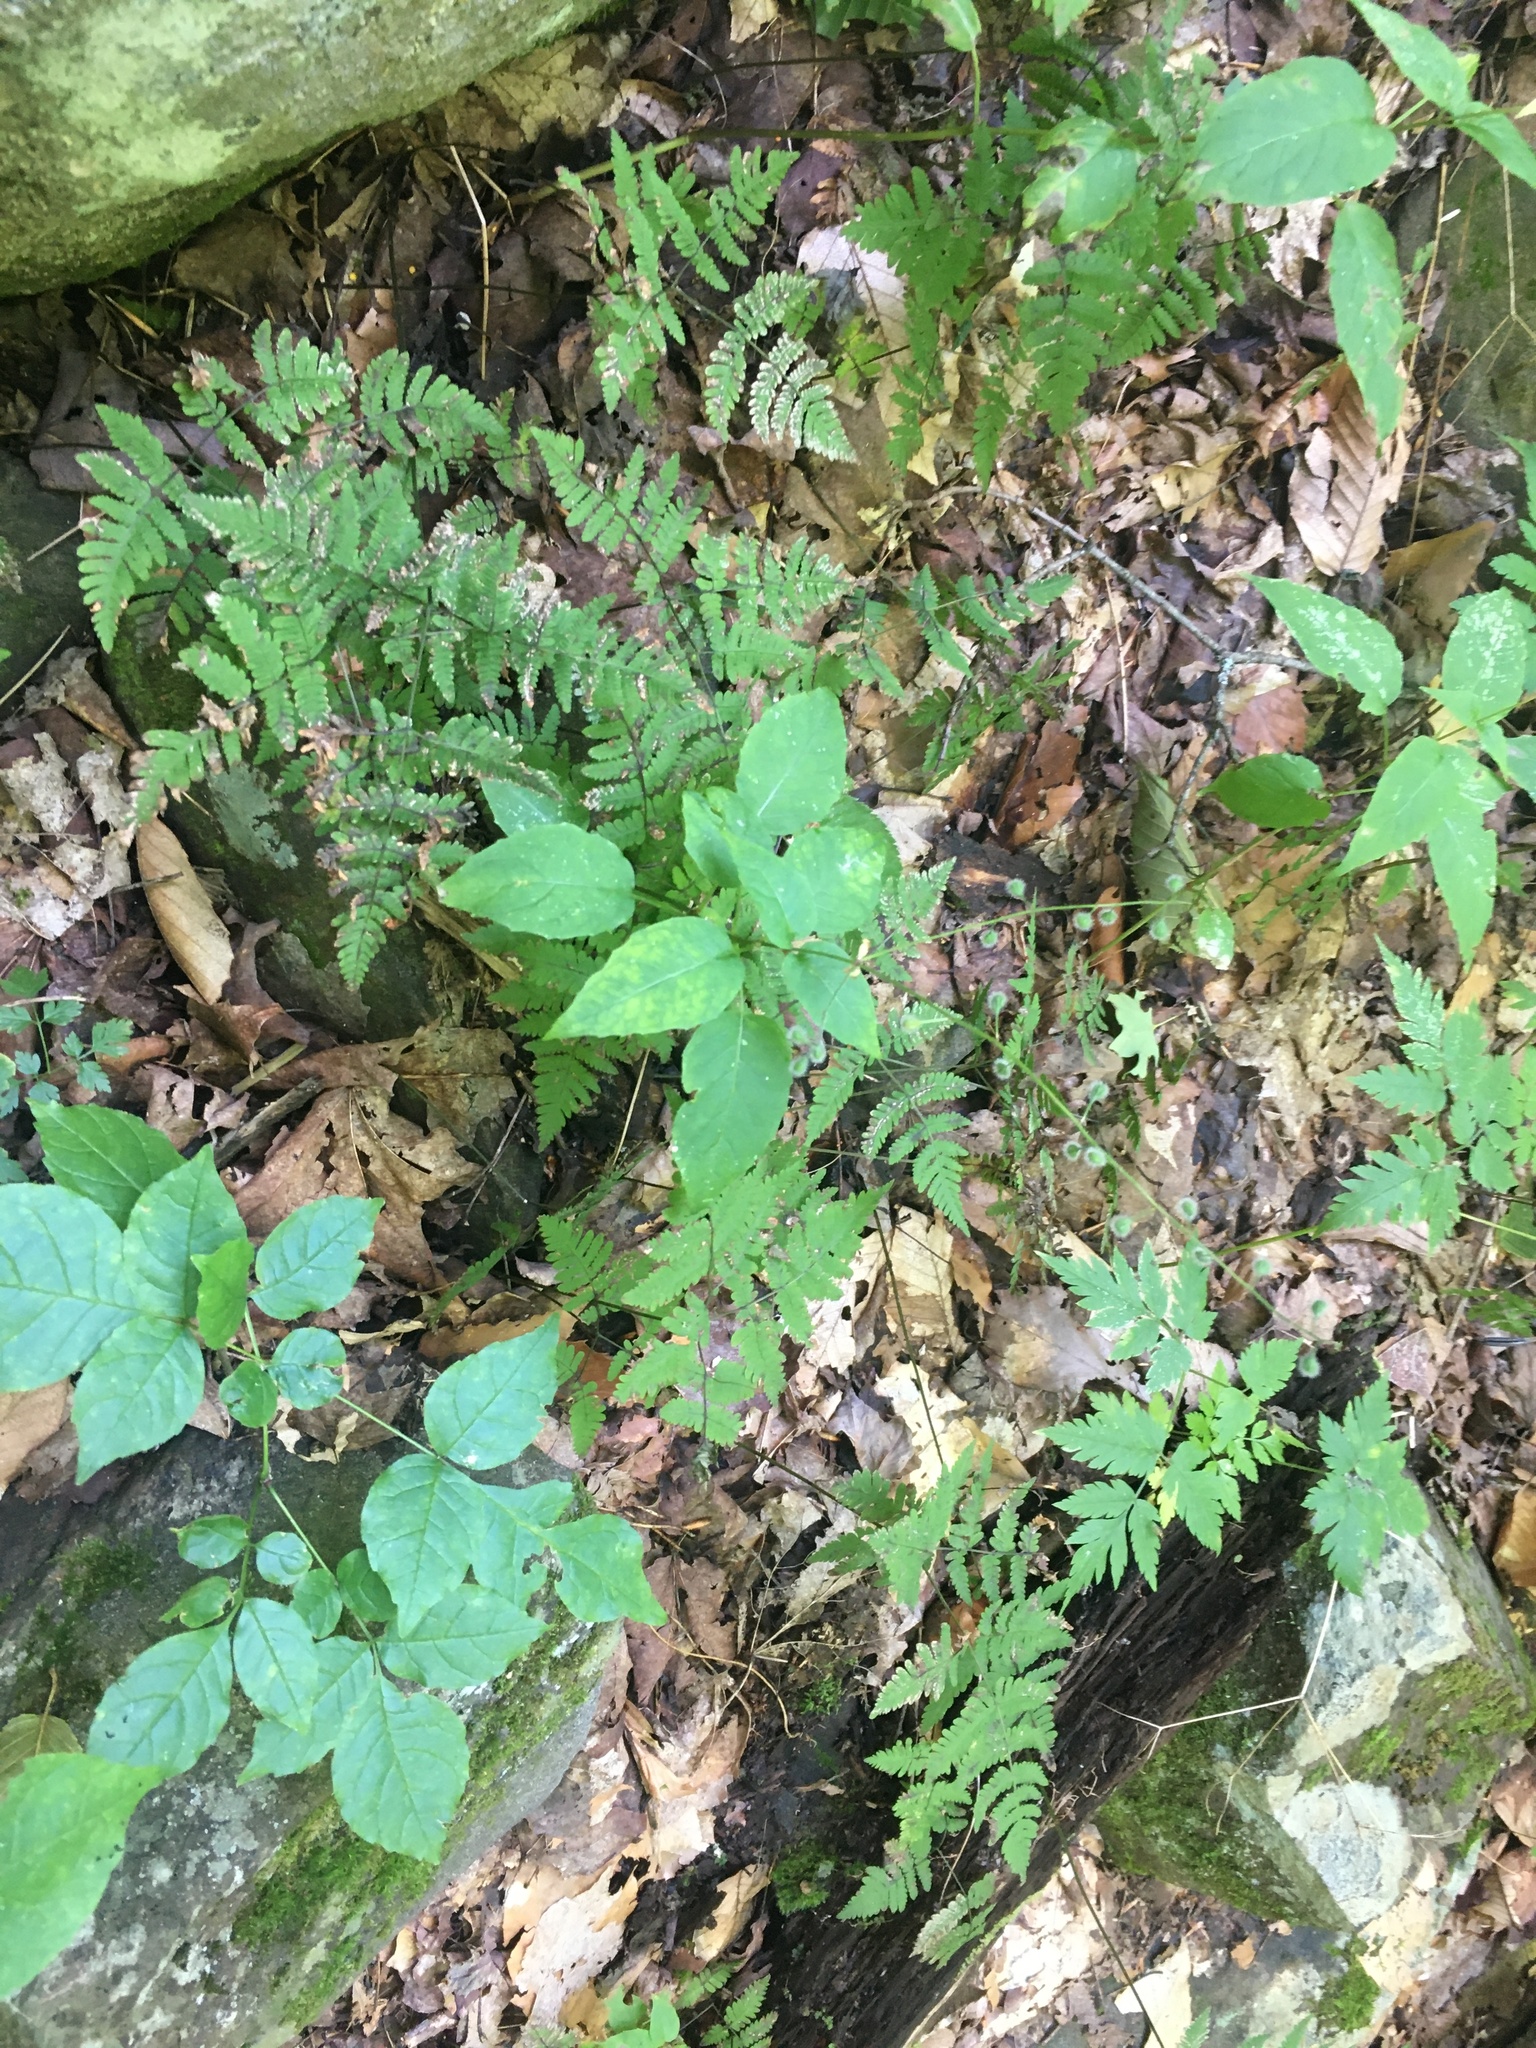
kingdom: Plantae
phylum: Tracheophyta
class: Polypodiopsida
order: Polypodiales
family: Cystopteridaceae
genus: Gymnocarpium
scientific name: Gymnocarpium dryopteris
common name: Oak fern
